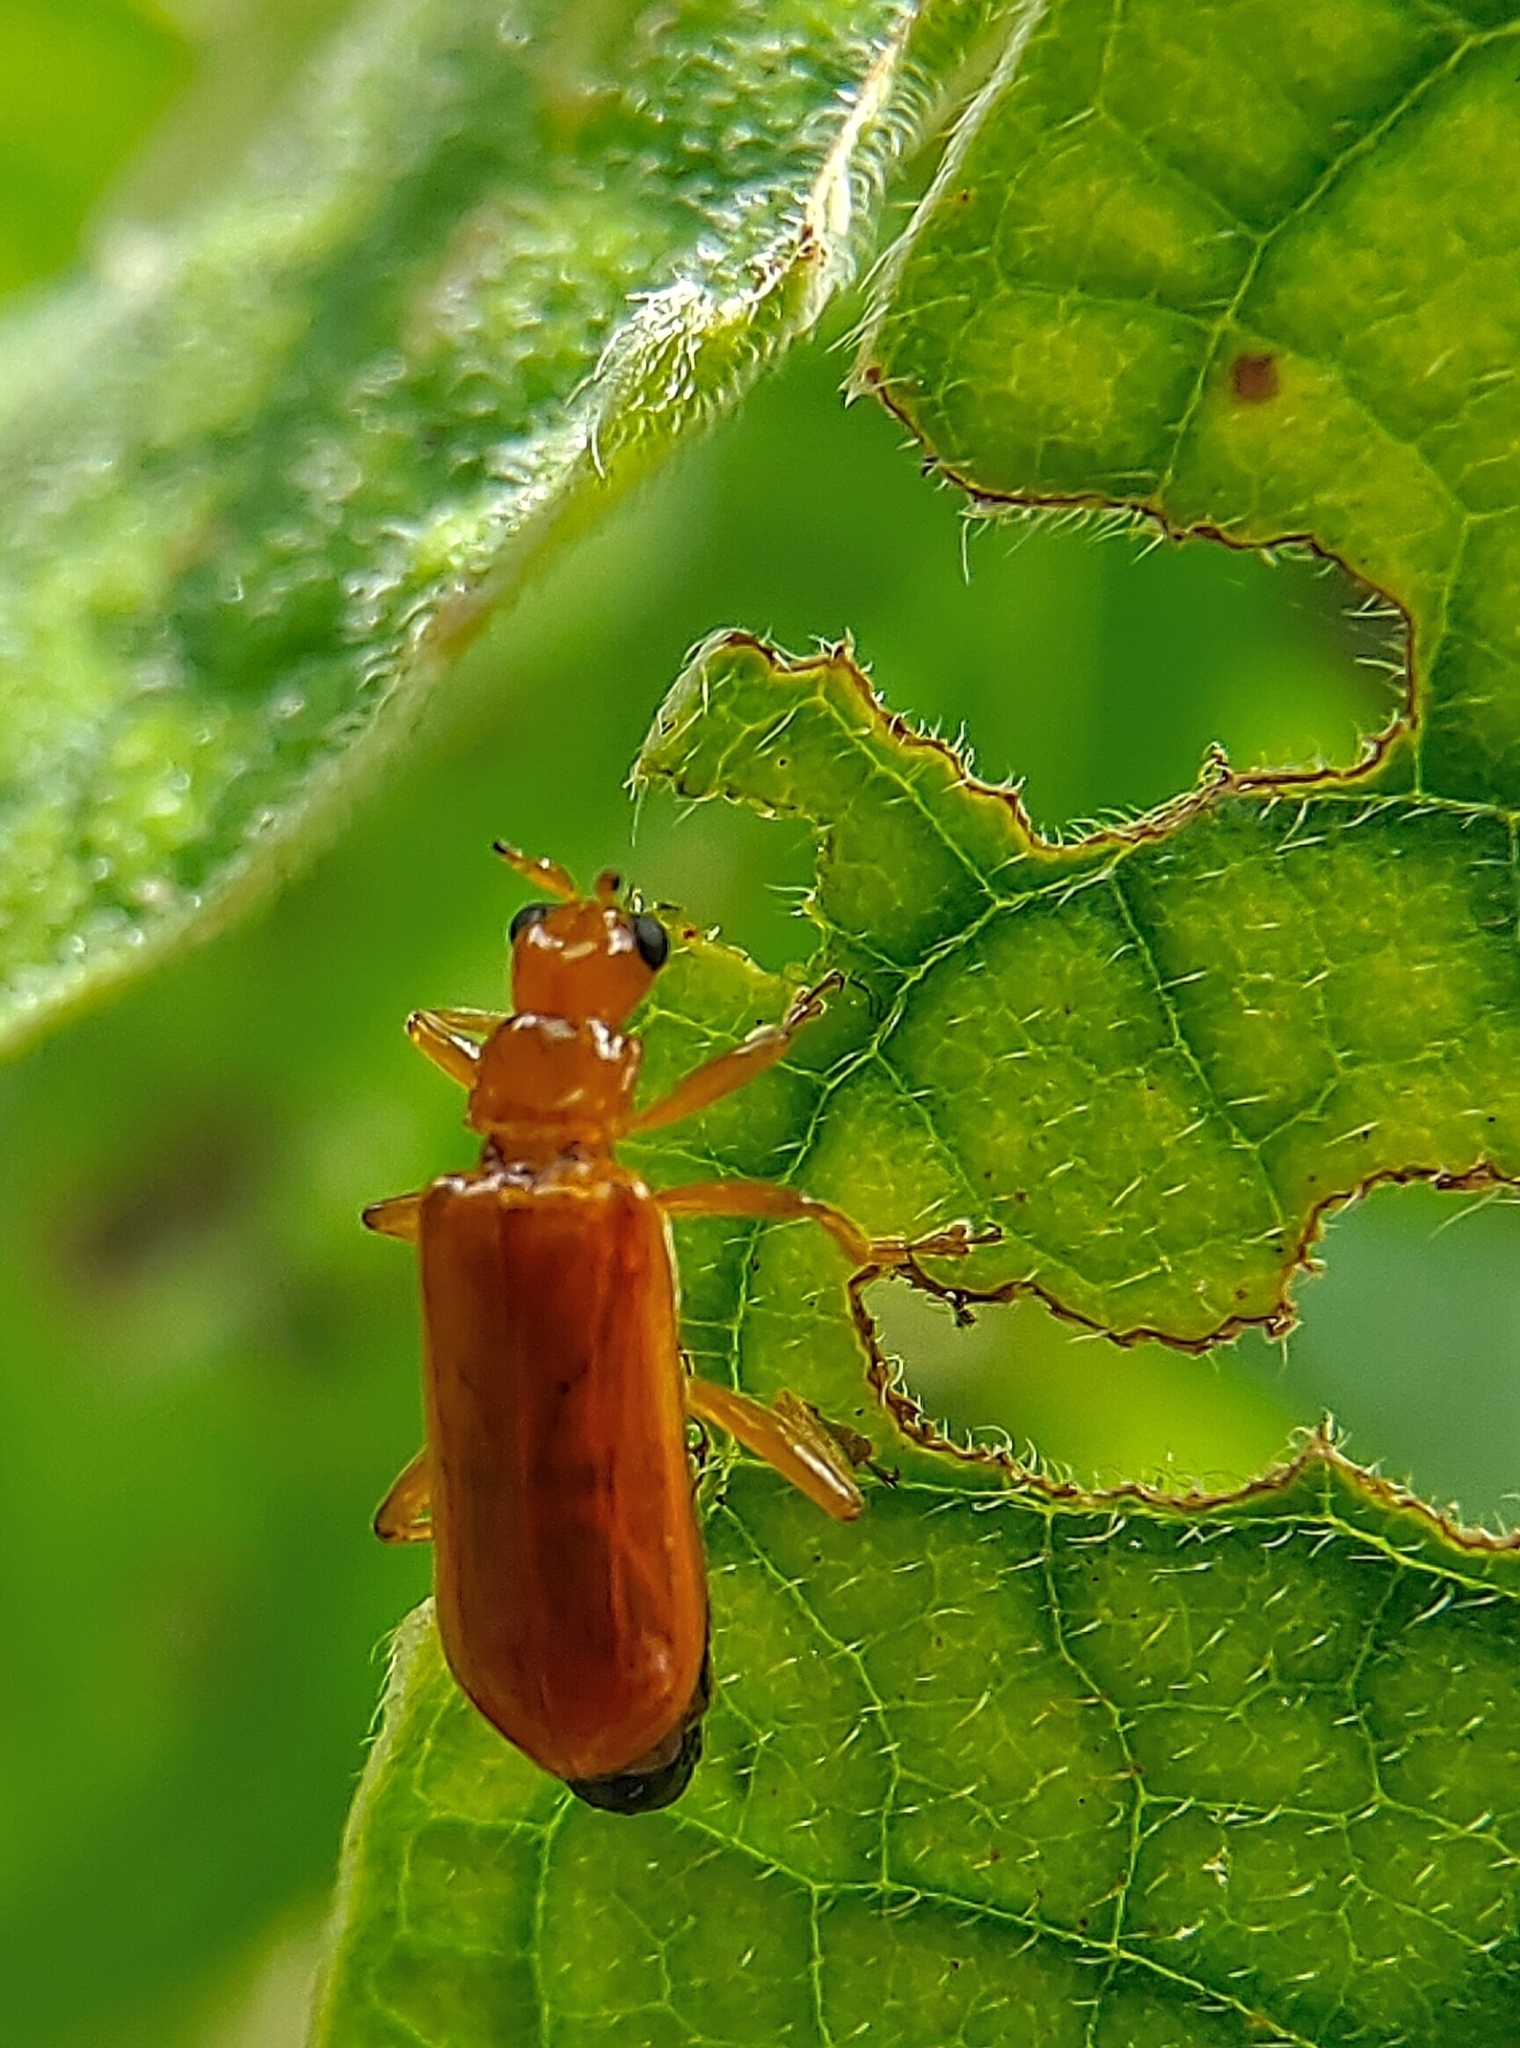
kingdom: Animalia
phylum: Arthropoda
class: Insecta
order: Coleoptera
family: Chrysomelidae
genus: Hoplasoma
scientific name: Hoplasoma ventrale
